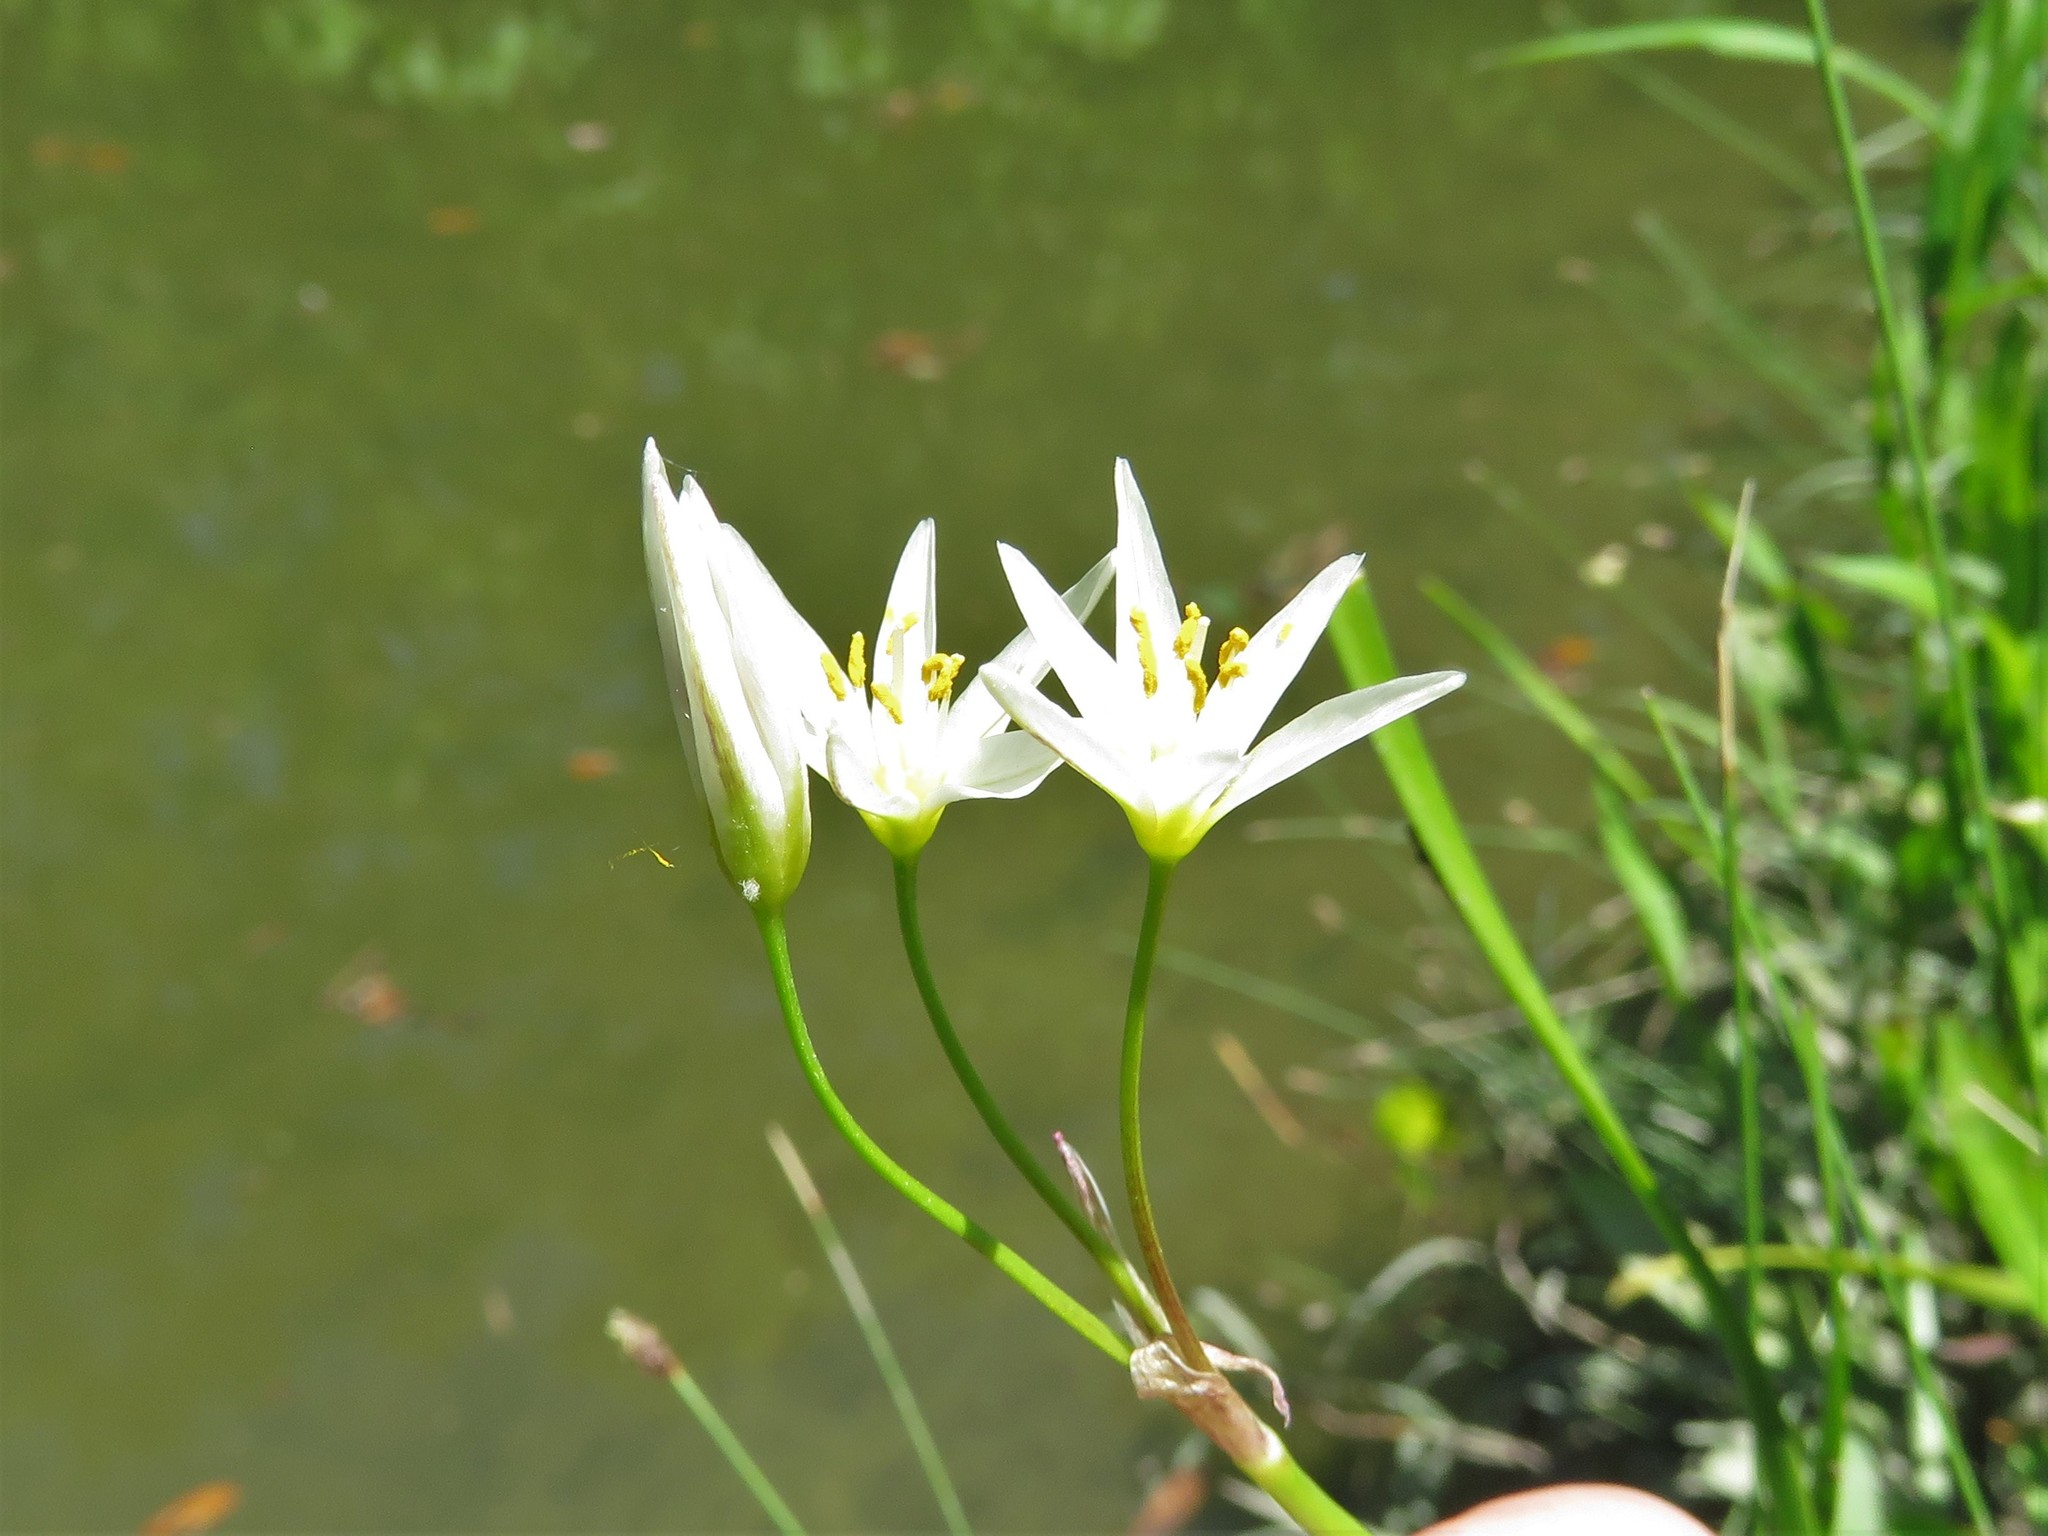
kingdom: Plantae
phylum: Tracheophyta
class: Liliopsida
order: Asparagales
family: Amaryllidaceae
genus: Nothoscordum
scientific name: Nothoscordum bivalve
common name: Crow-poison
